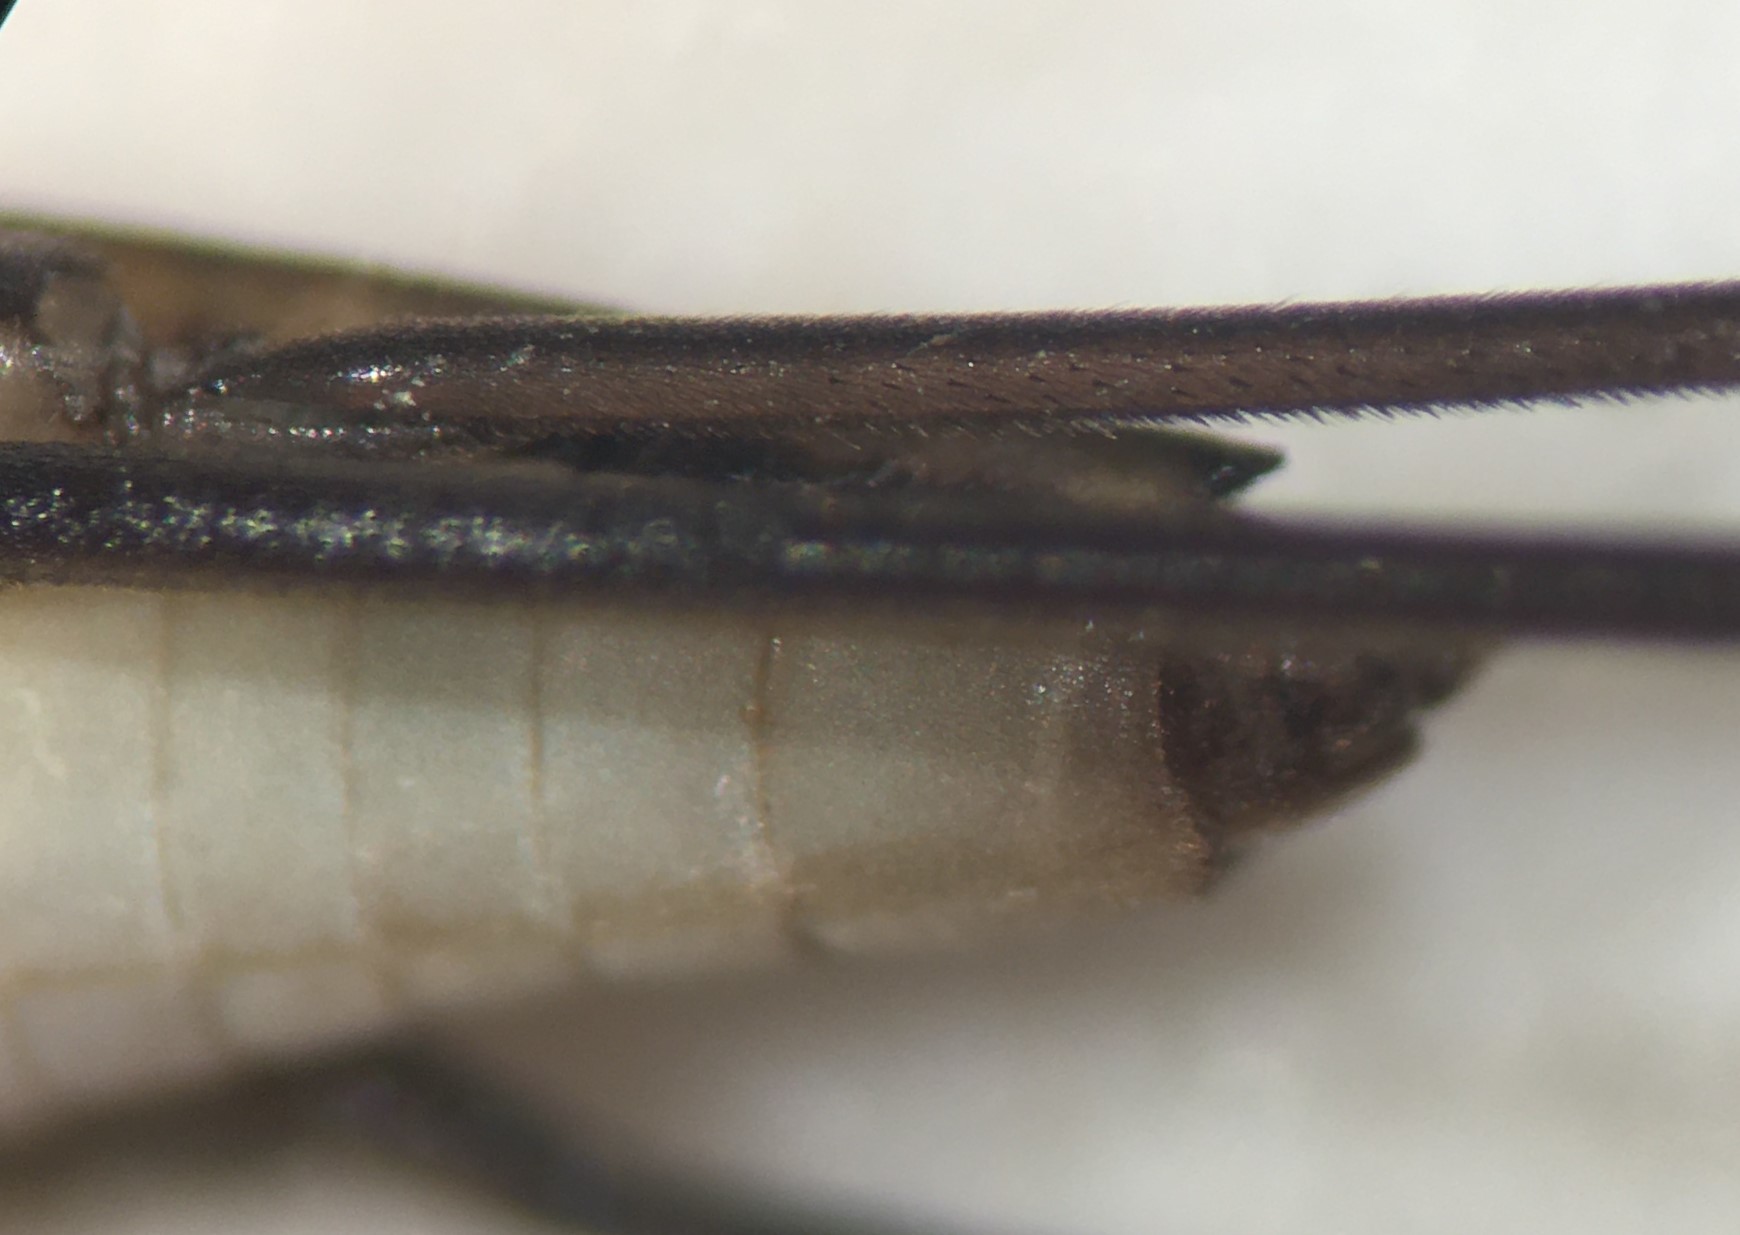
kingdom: Animalia
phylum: Arthropoda
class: Insecta
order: Hemiptera
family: Gerridae
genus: Limnogonus
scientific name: Limnogonus recens
